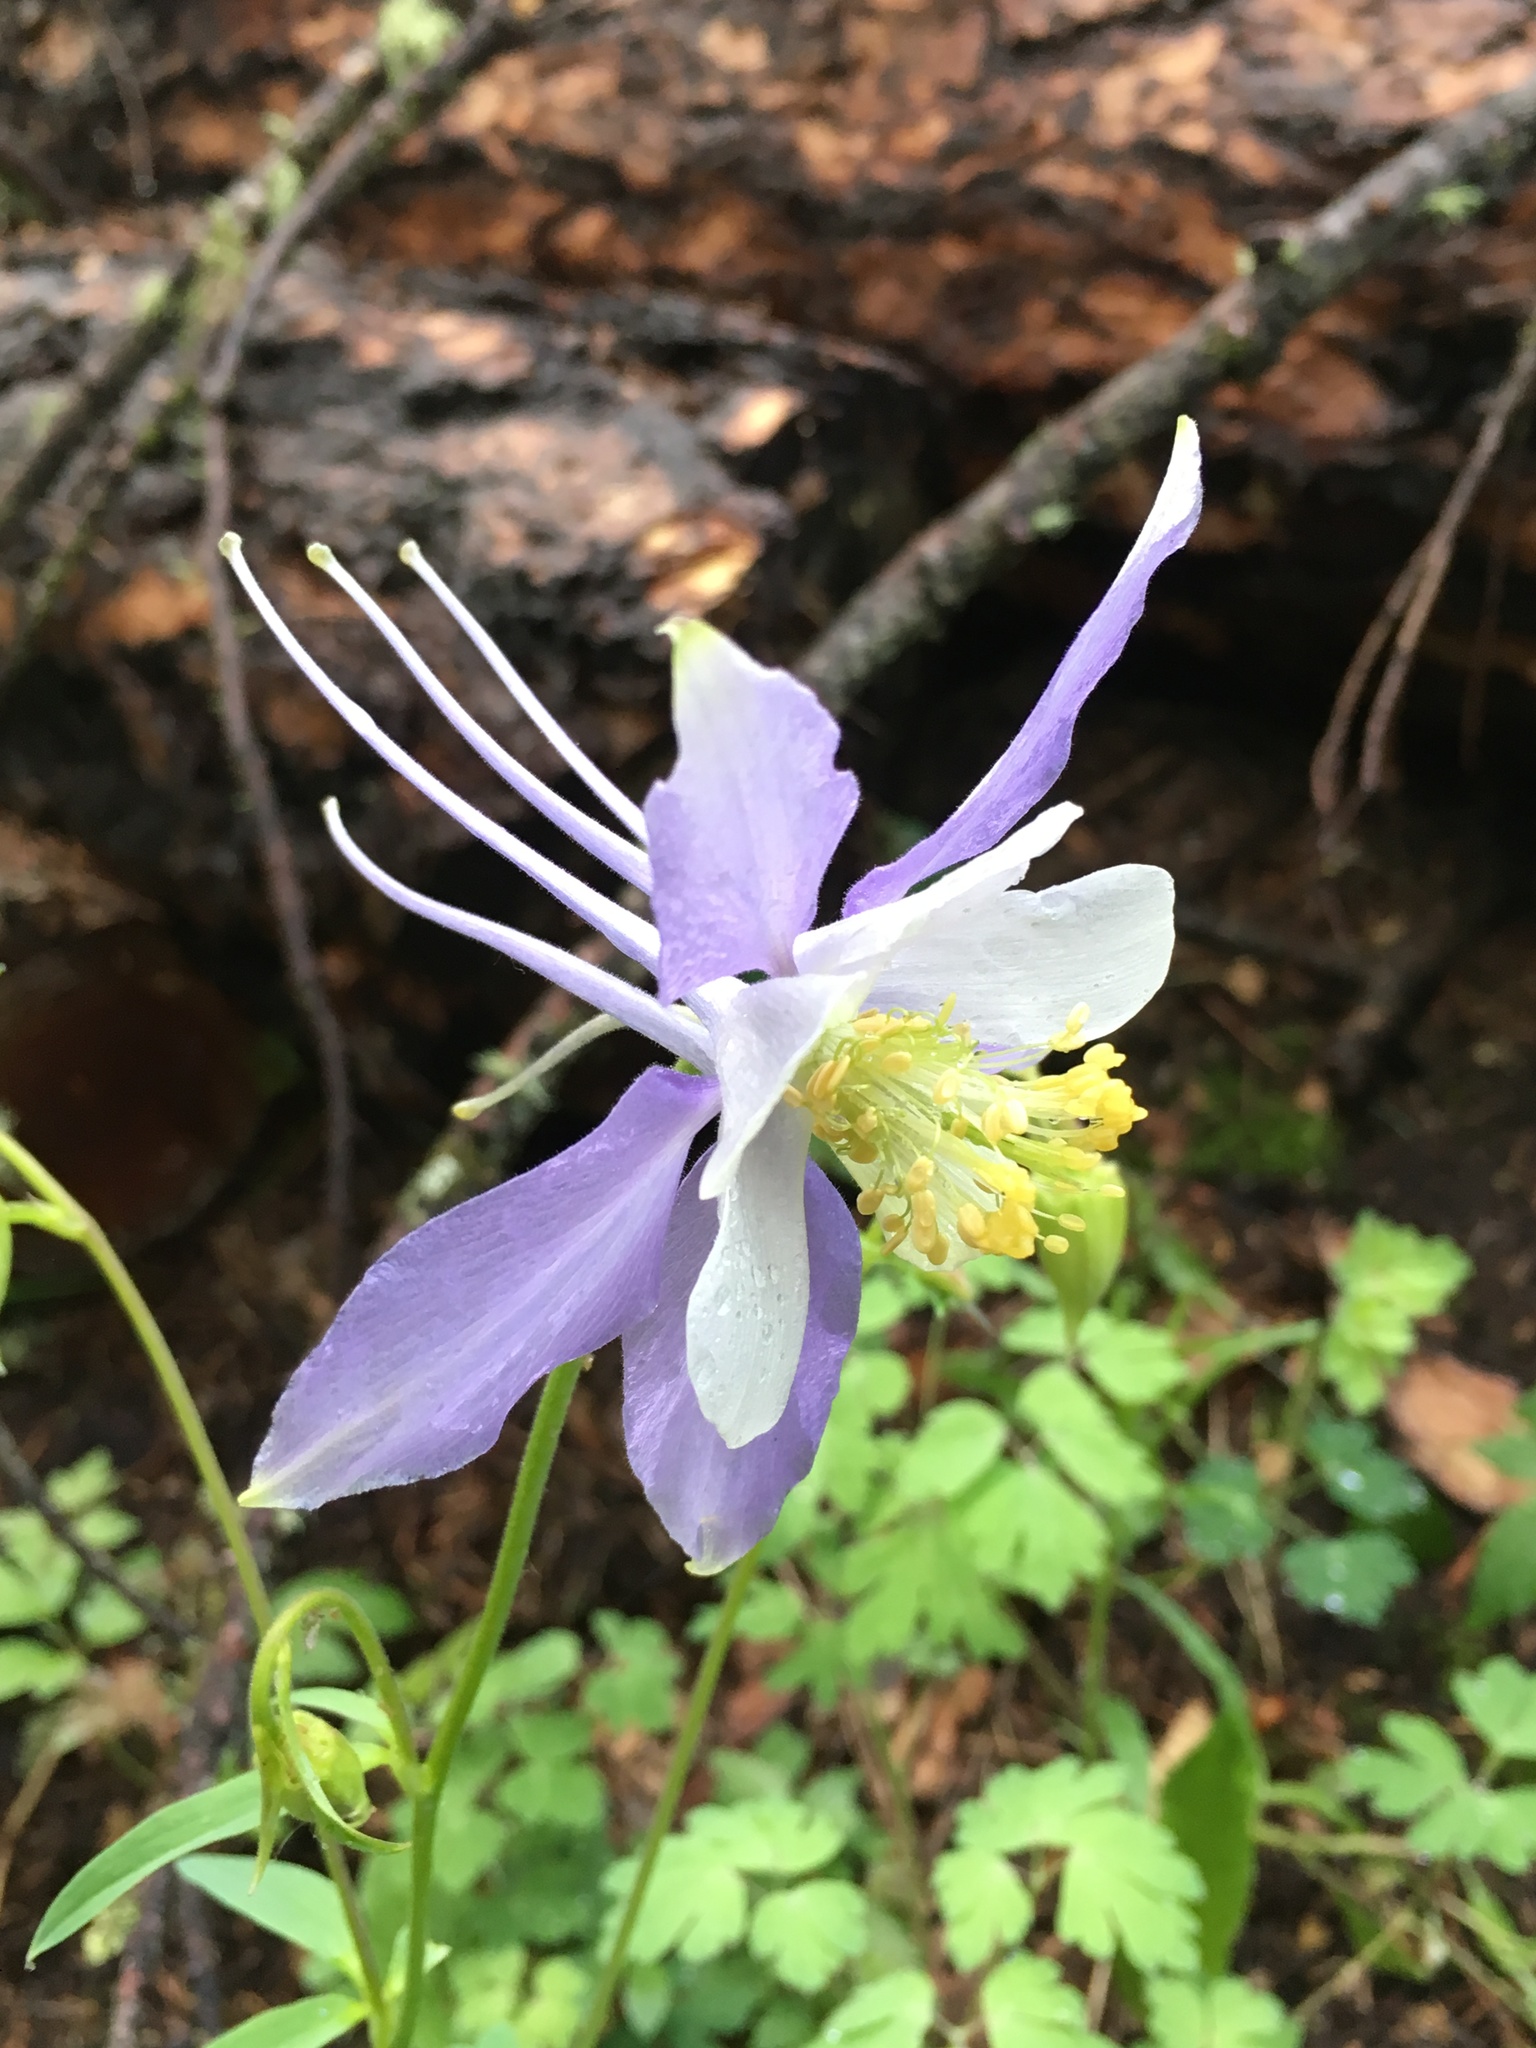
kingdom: Plantae
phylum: Tracheophyta
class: Magnoliopsida
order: Ranunculales
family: Ranunculaceae
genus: Aquilegia
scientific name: Aquilegia coerulea
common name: Rocky mountain columbine
